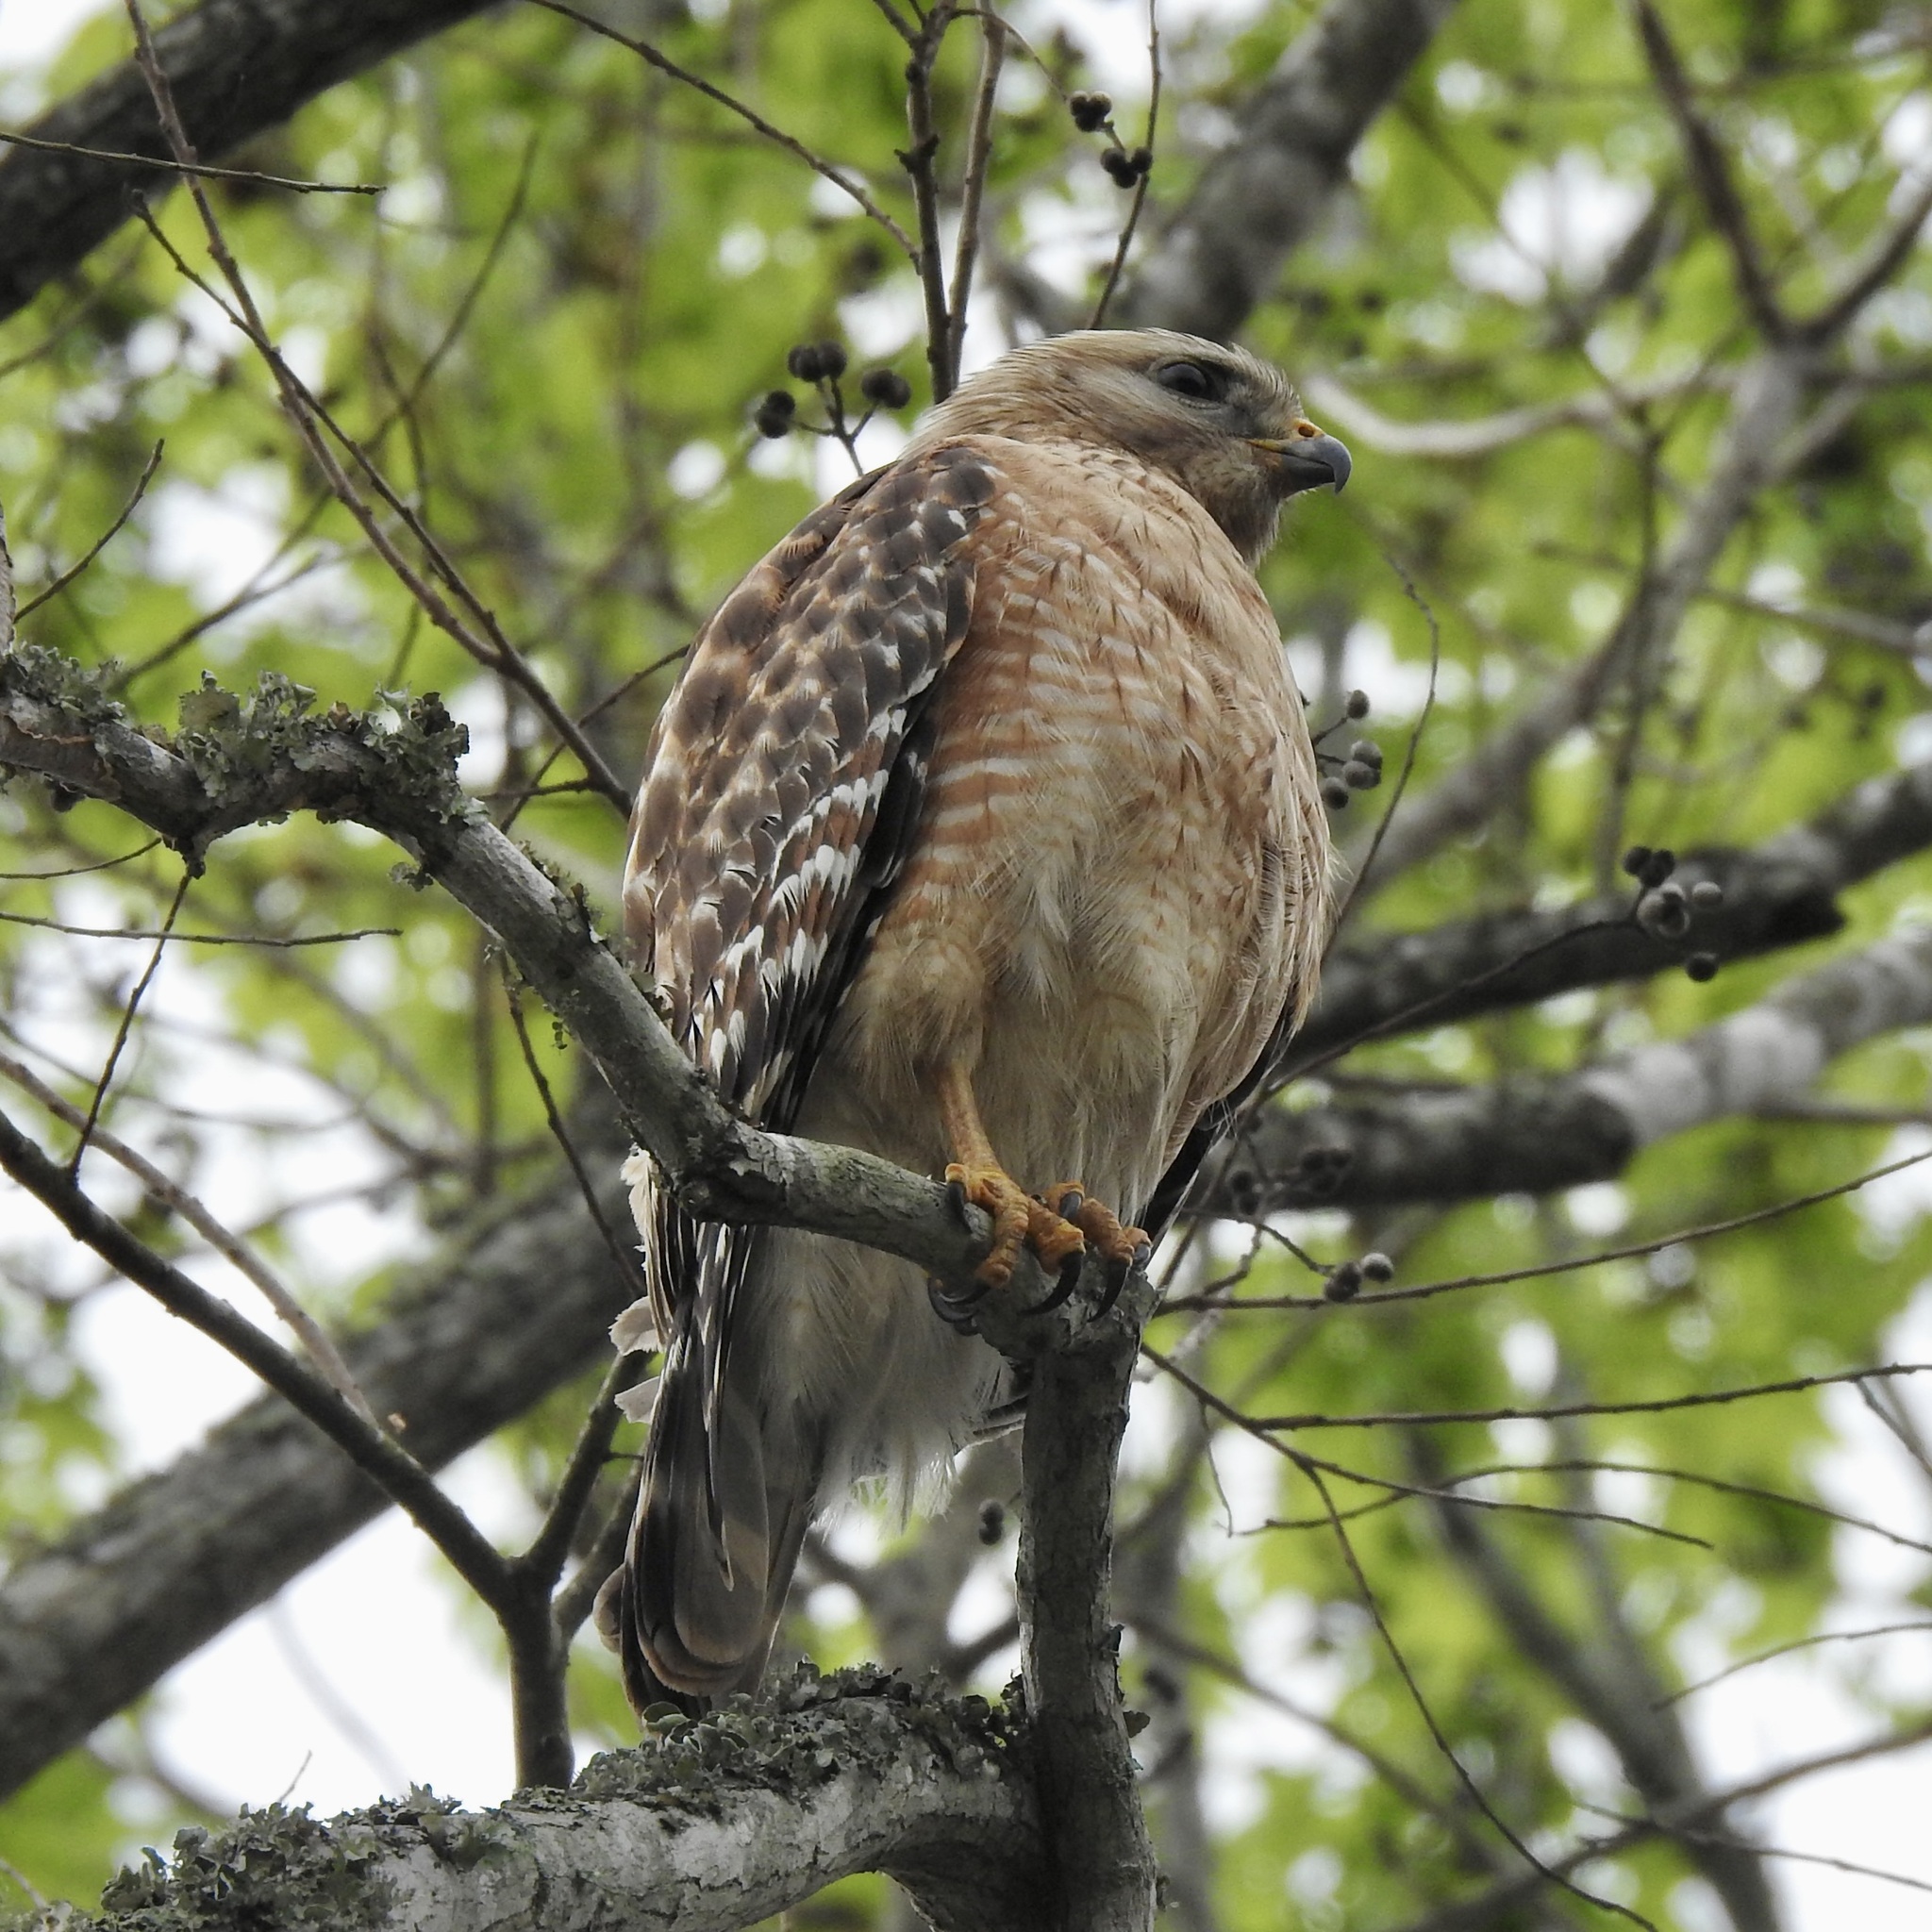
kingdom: Animalia
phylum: Chordata
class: Aves
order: Accipitriformes
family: Accipitridae
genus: Buteo
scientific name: Buteo lineatus
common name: Red-shouldered hawk
